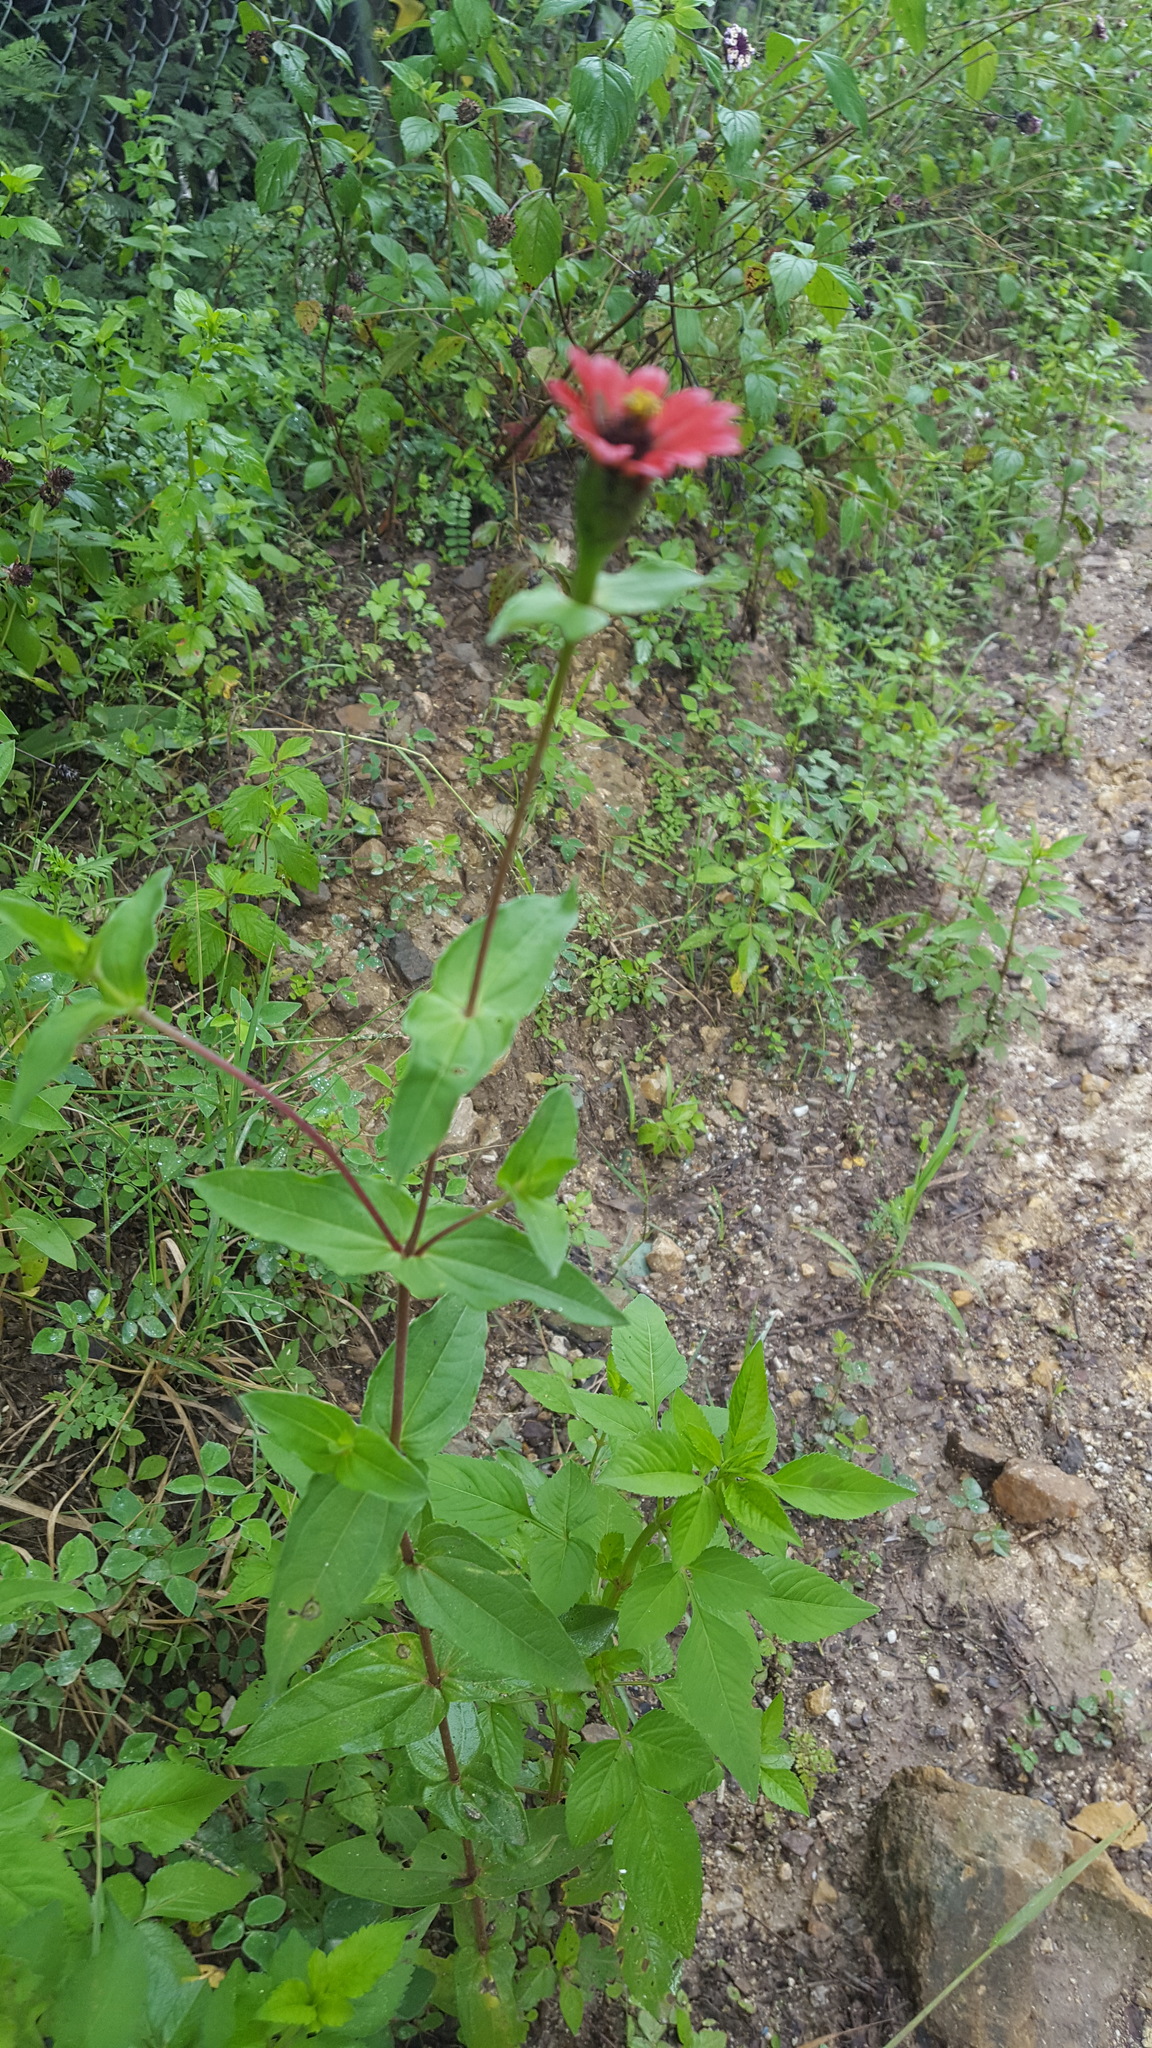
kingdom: Plantae
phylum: Tracheophyta
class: Magnoliopsida
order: Asterales
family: Asteraceae
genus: Zinnia
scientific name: Zinnia peruviana
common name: Peruvian zinnia
